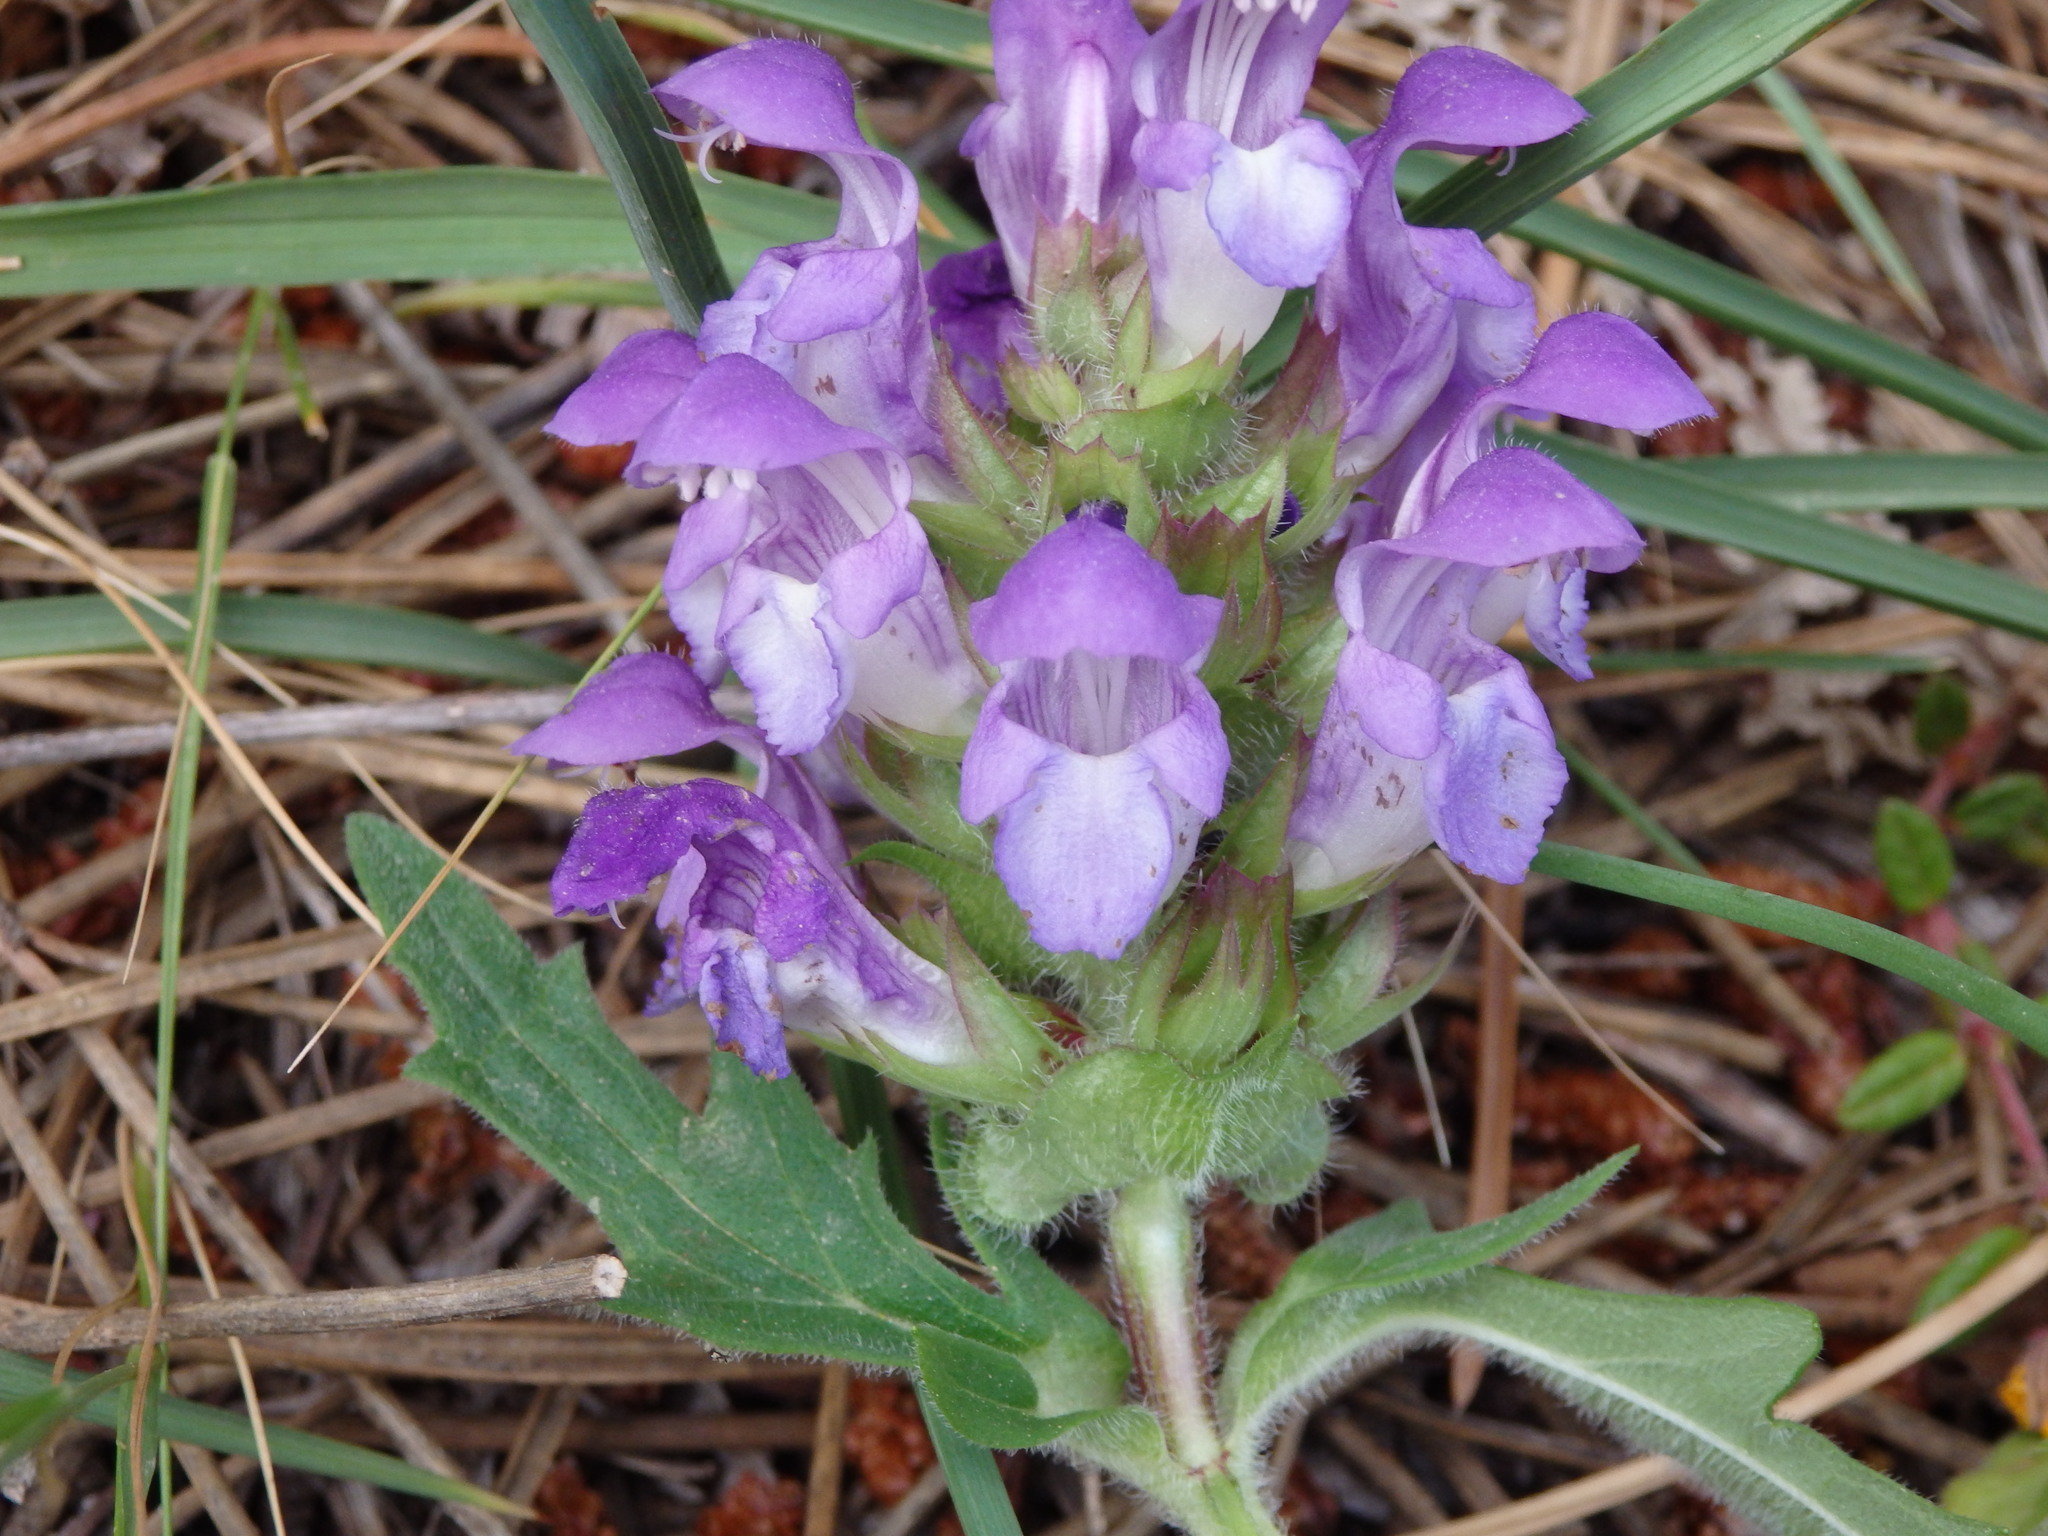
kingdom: Plantae
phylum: Tracheophyta
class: Magnoliopsida
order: Lamiales
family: Lamiaceae
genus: Prunella
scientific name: Prunella grandiflora
